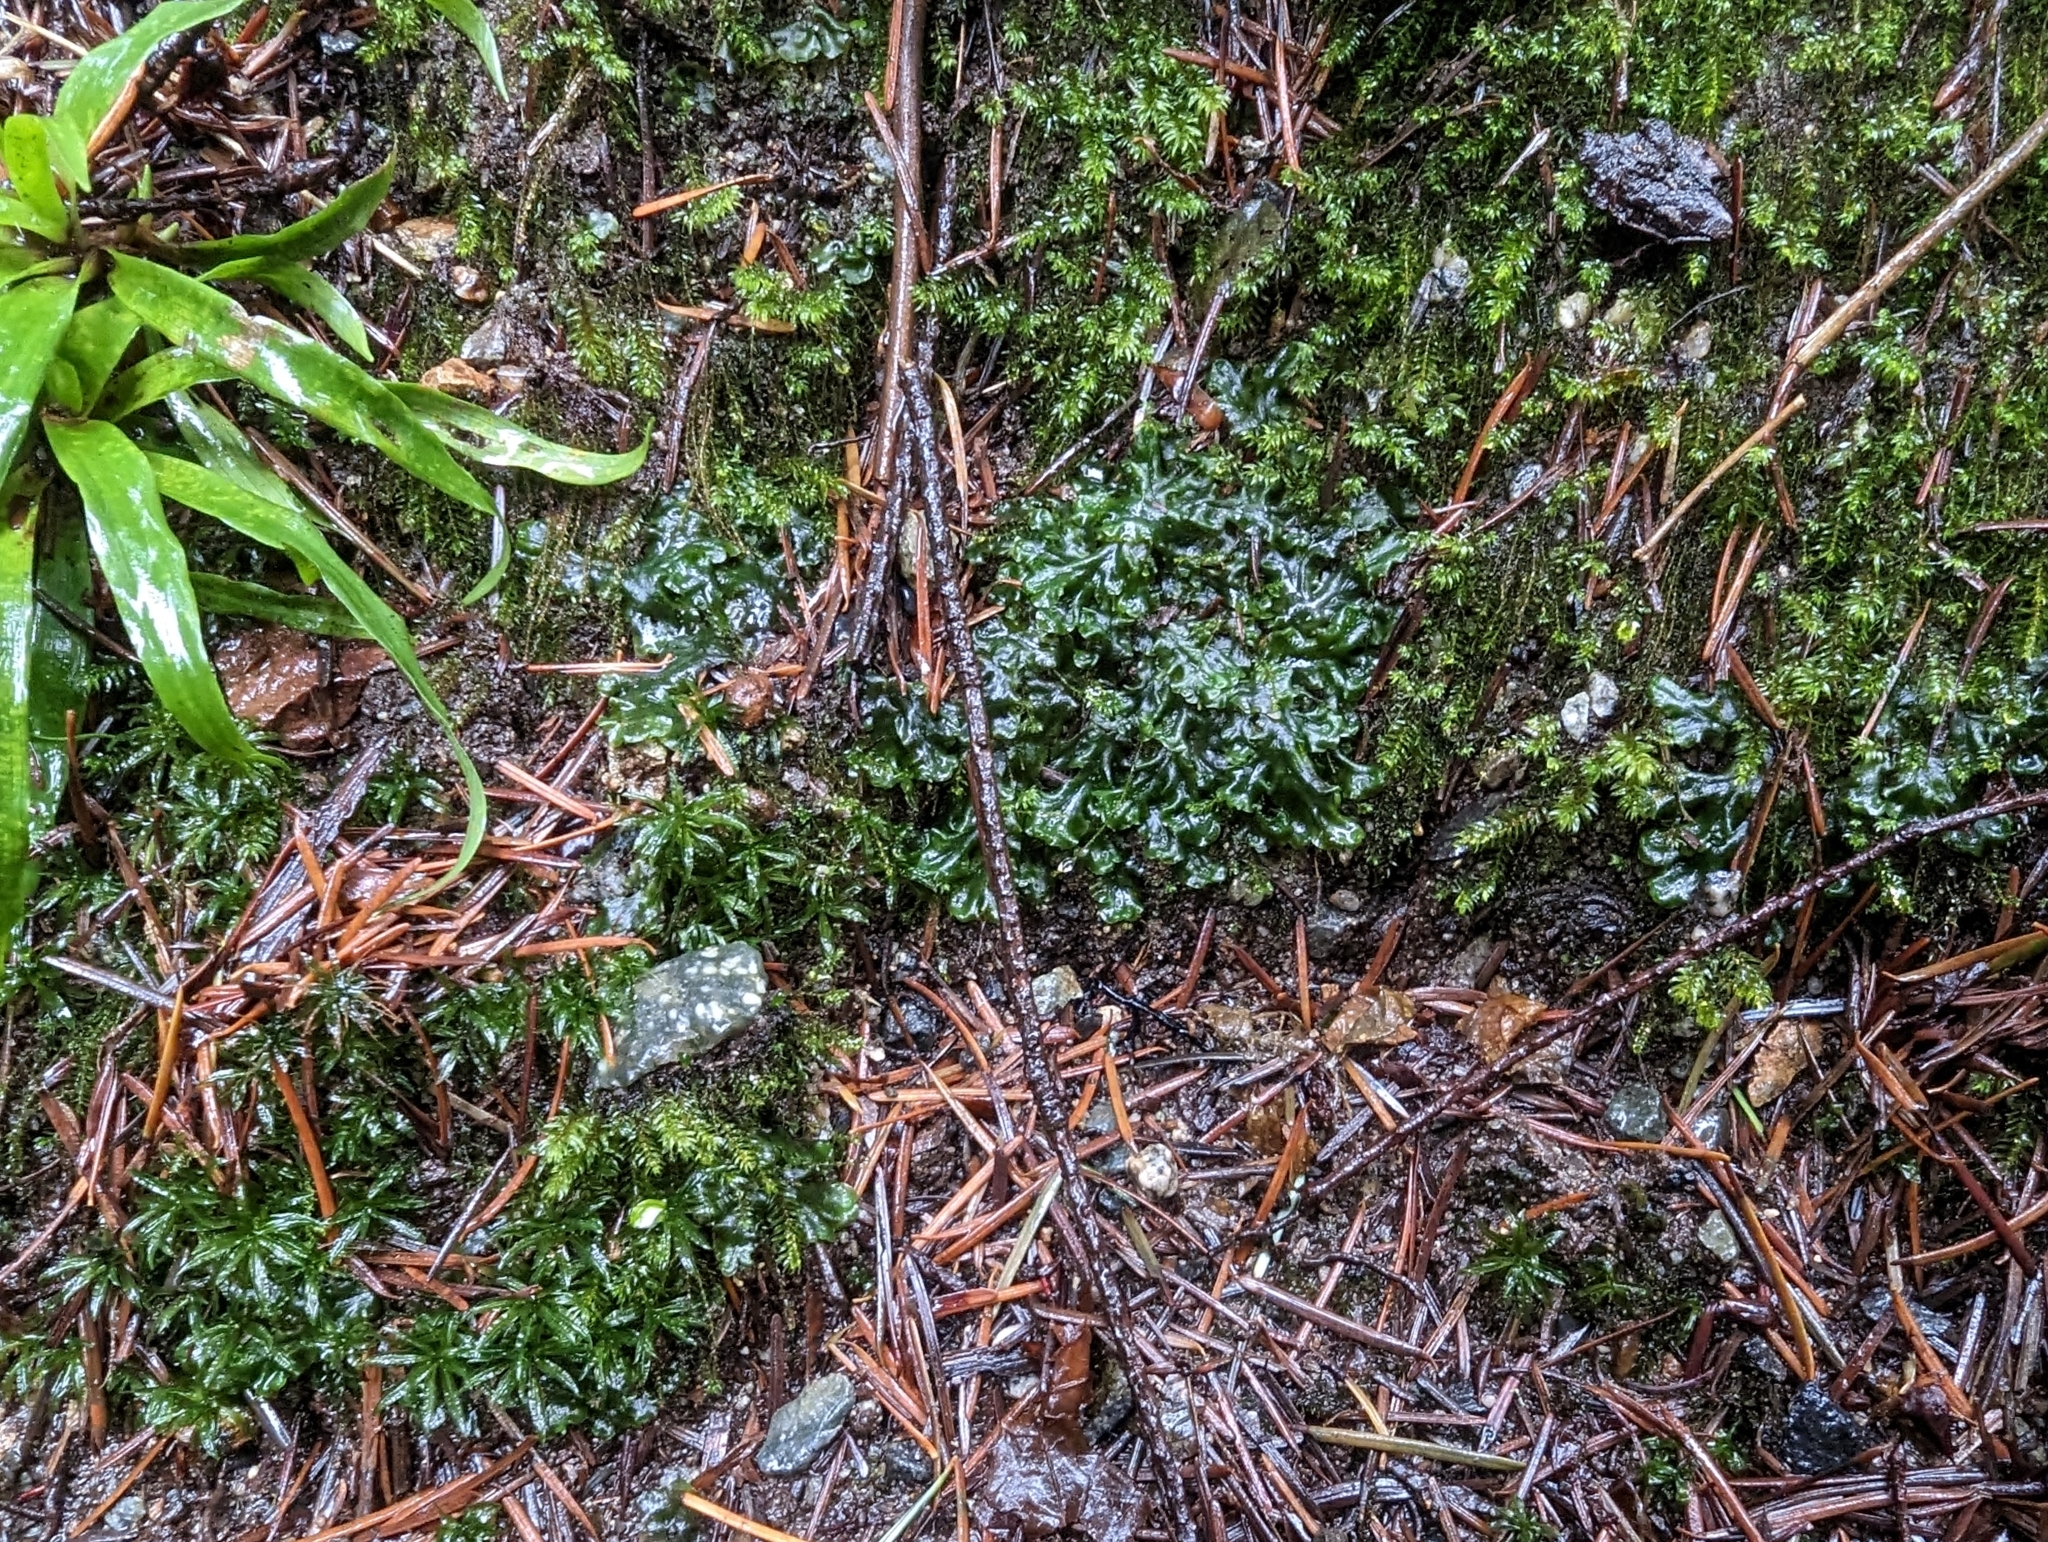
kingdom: Plantae
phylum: Marchantiophyta
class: Jungermanniopsida
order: Pelliales
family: Pelliaceae
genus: Pellia
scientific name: Pellia neesiana
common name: Nees  pellia
